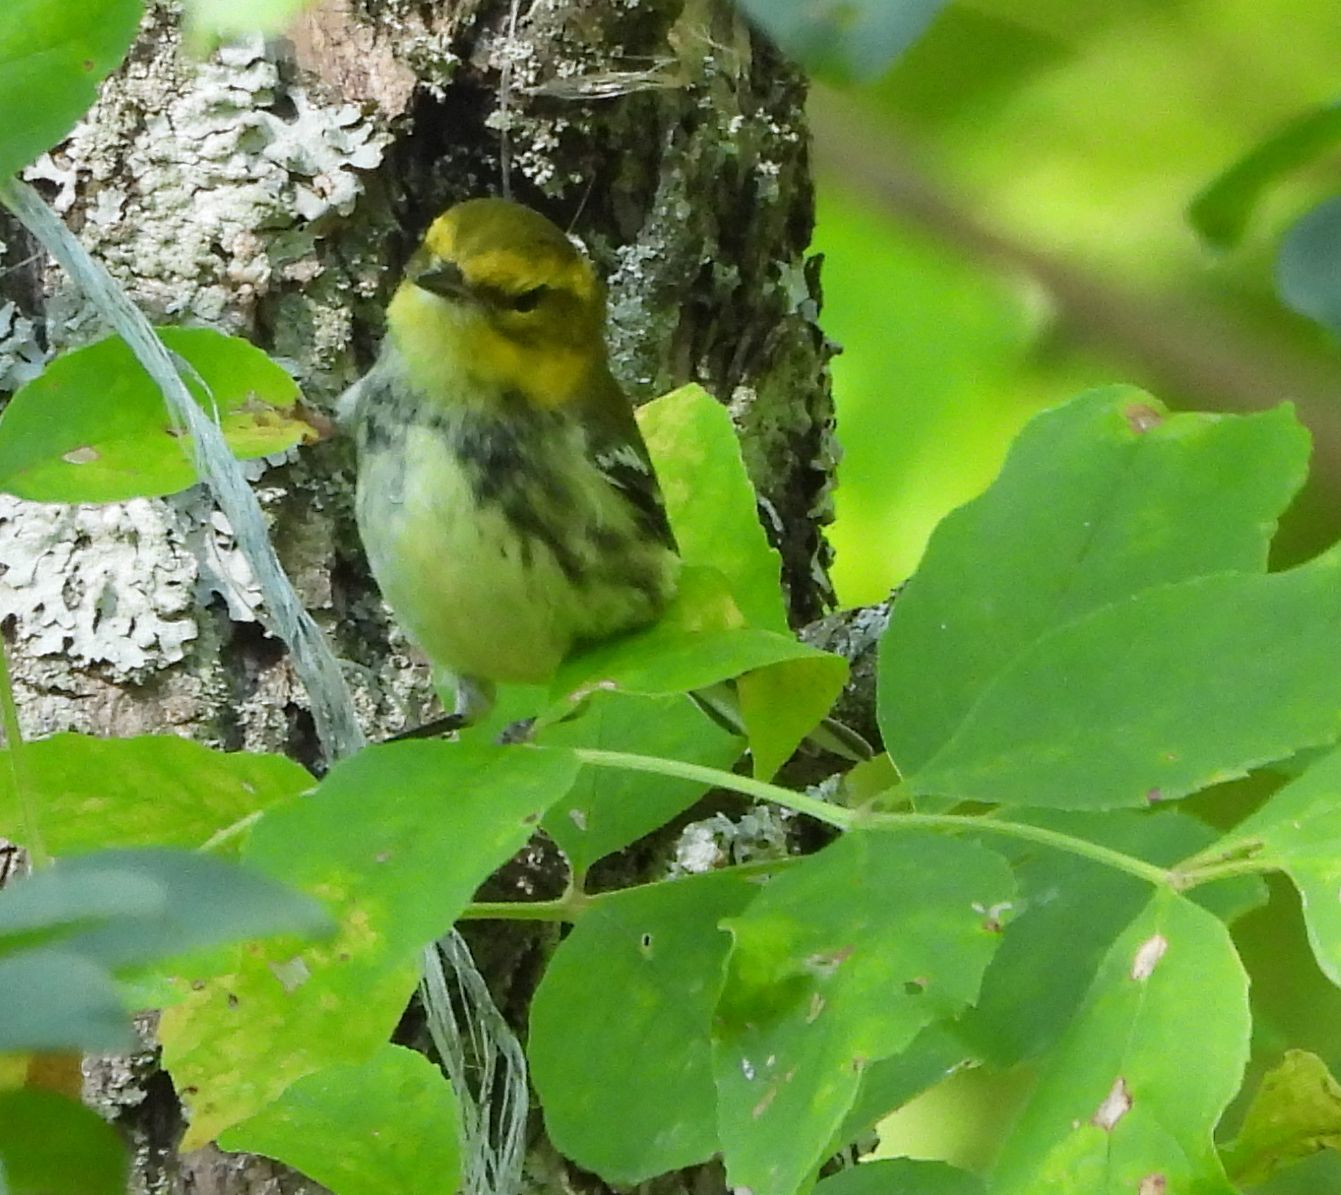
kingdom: Animalia
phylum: Chordata
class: Aves
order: Passeriformes
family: Parulidae
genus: Setophaga
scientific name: Setophaga virens
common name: Black-throated green warbler
